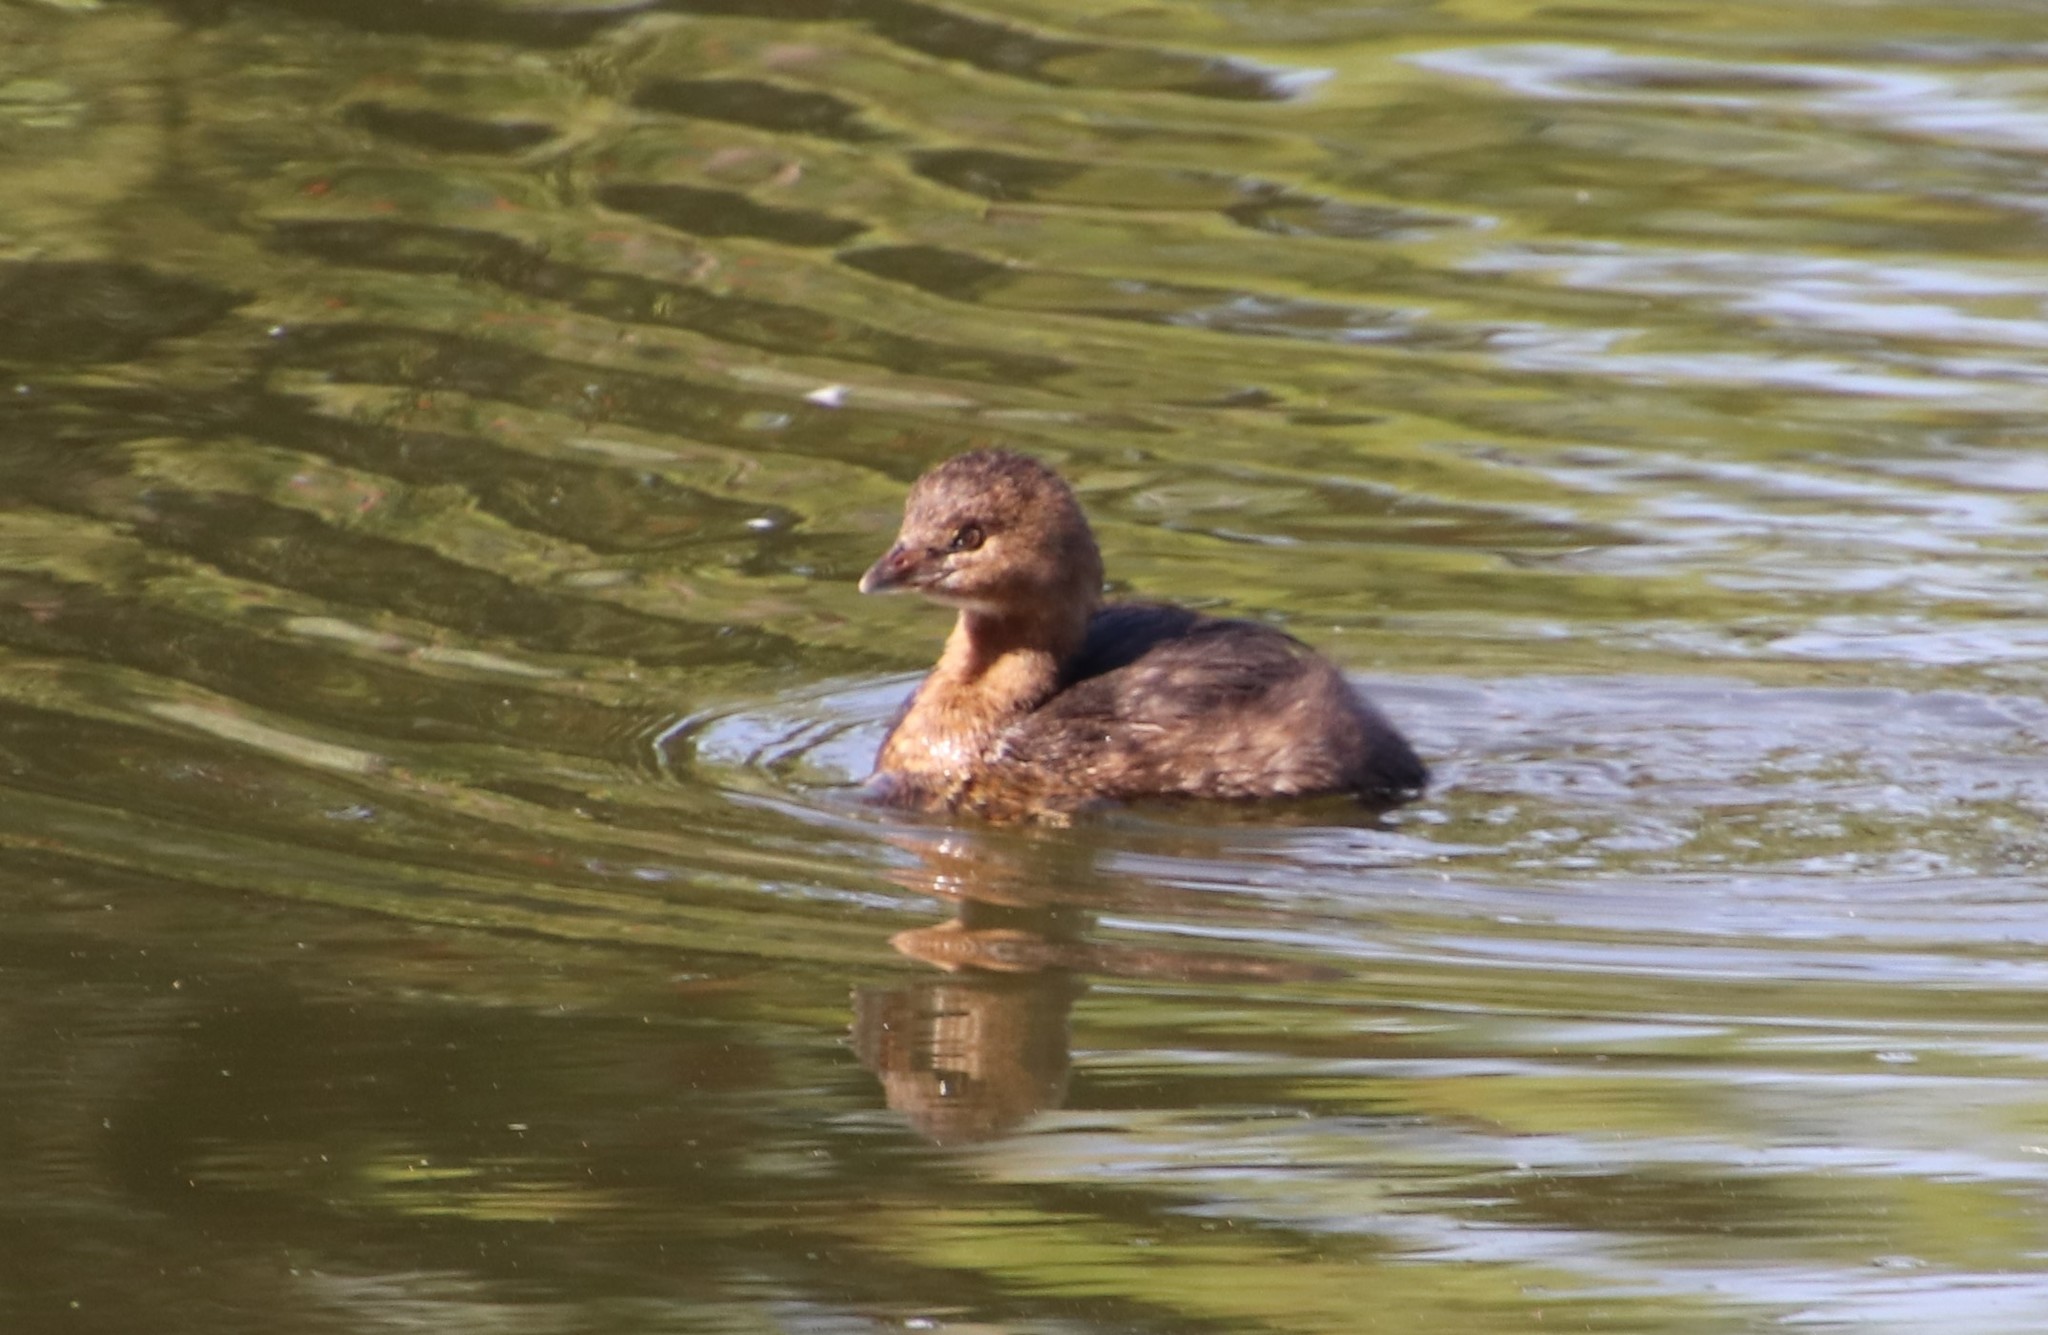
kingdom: Animalia
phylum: Chordata
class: Aves
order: Podicipediformes
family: Podicipedidae
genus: Podilymbus
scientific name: Podilymbus podiceps
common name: Pied-billed grebe
